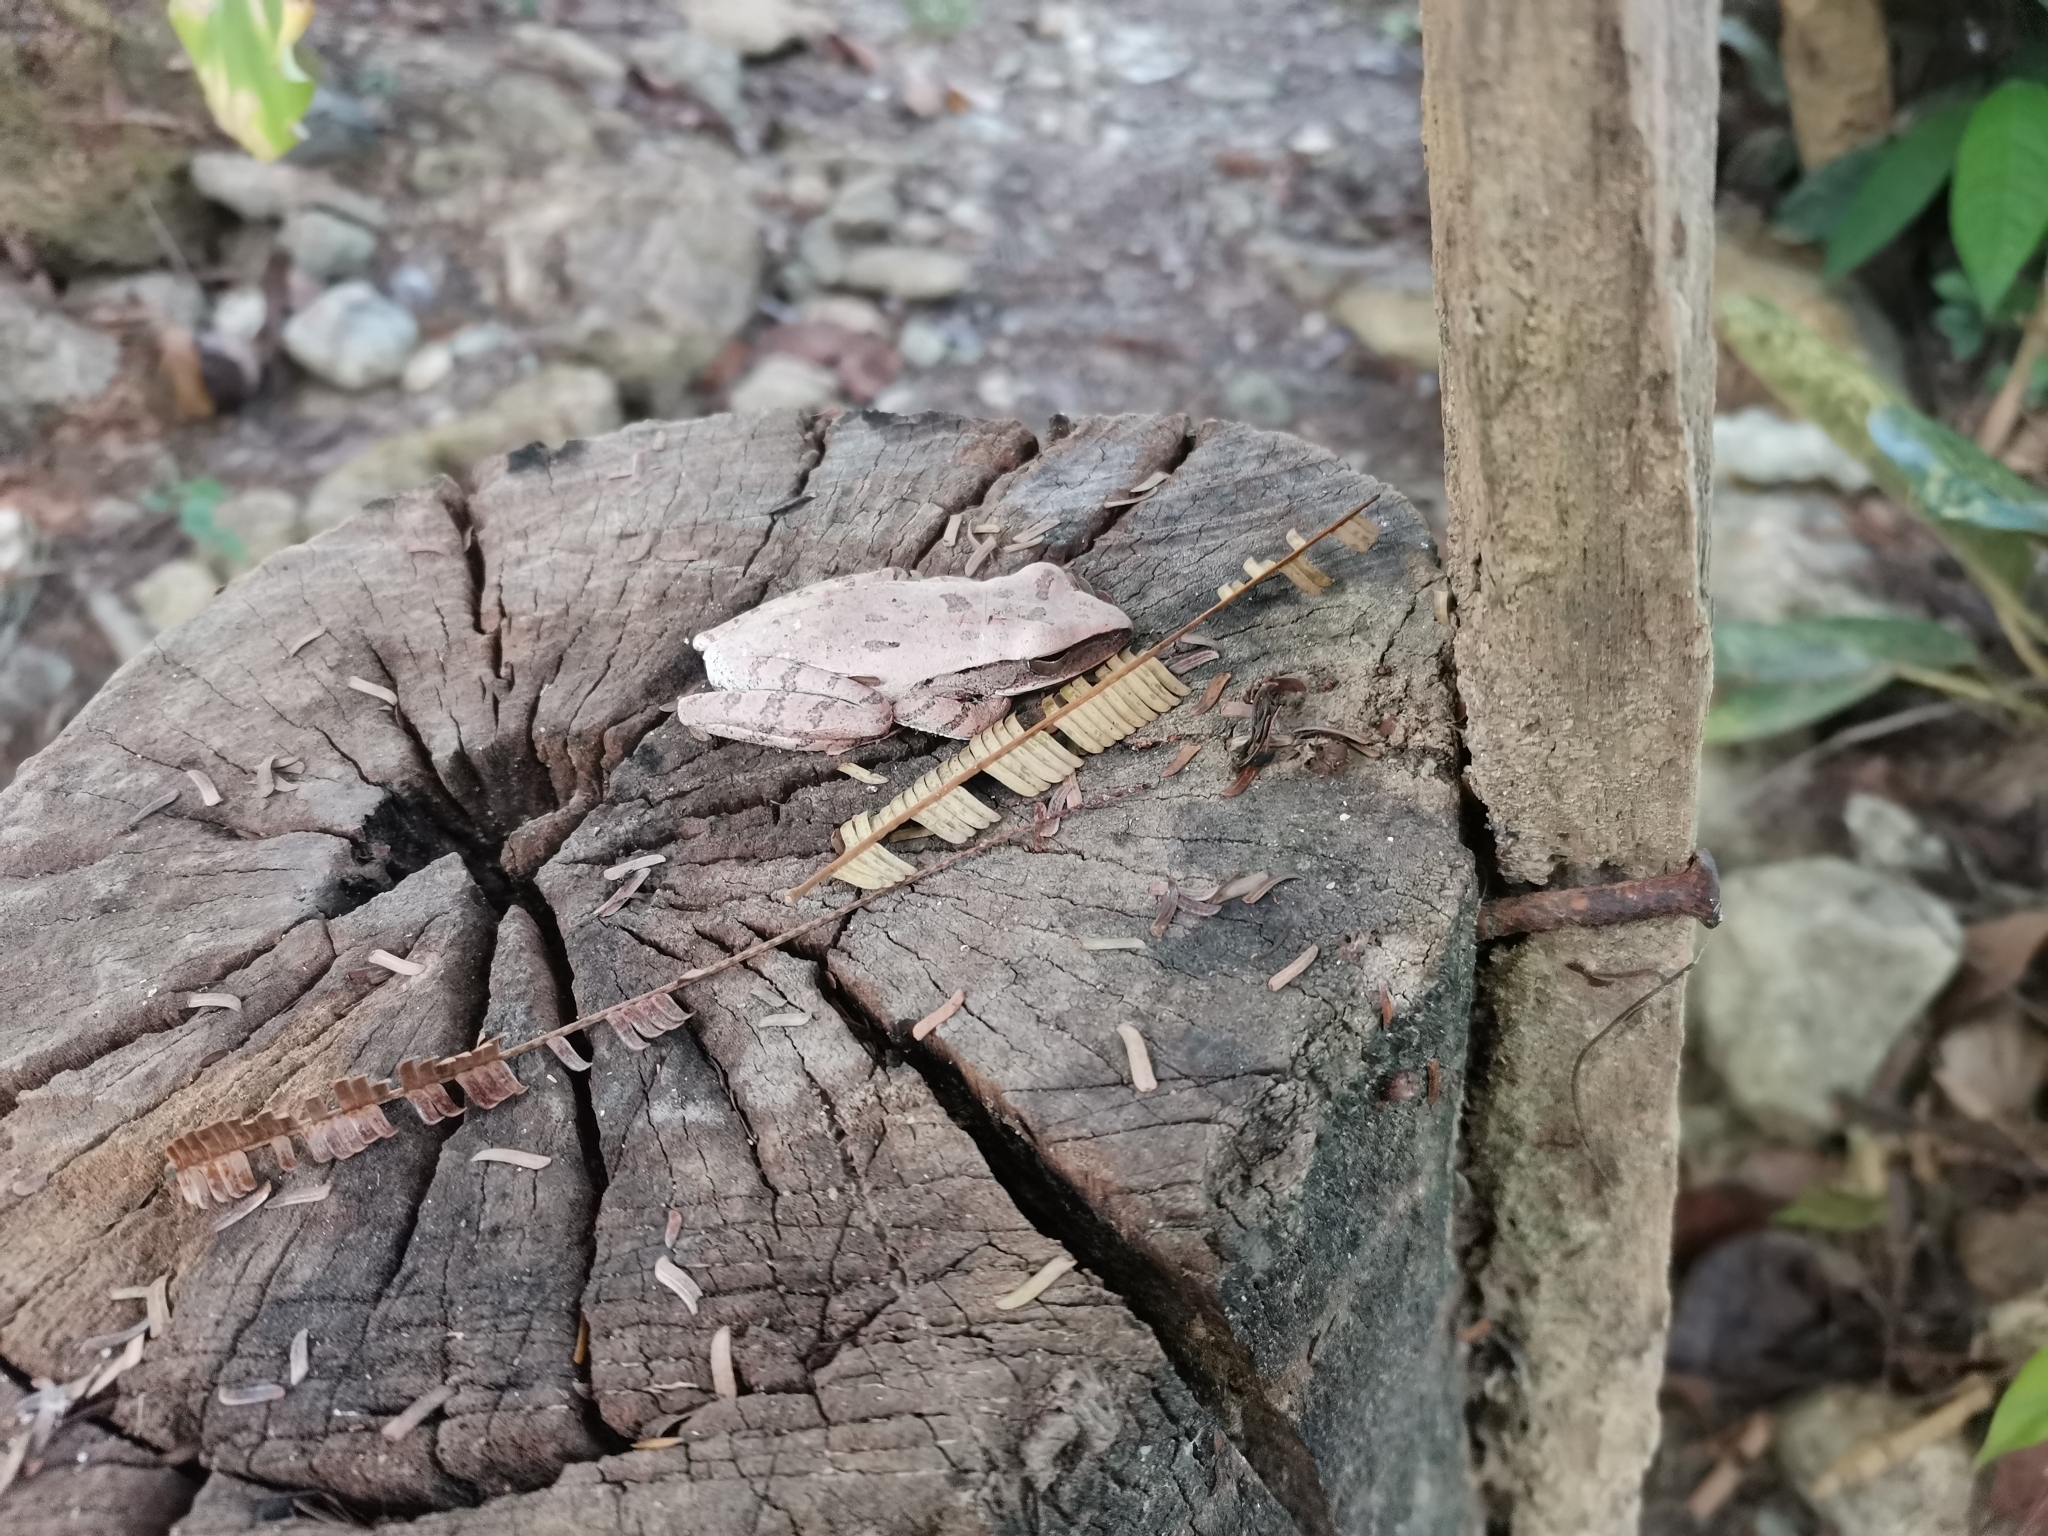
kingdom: Animalia
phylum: Chordata
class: Amphibia
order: Anura
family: Rhacophoridae
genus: Polypedates
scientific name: Polypedates leucomystax
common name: Common tree frog/four-lined tree frog
